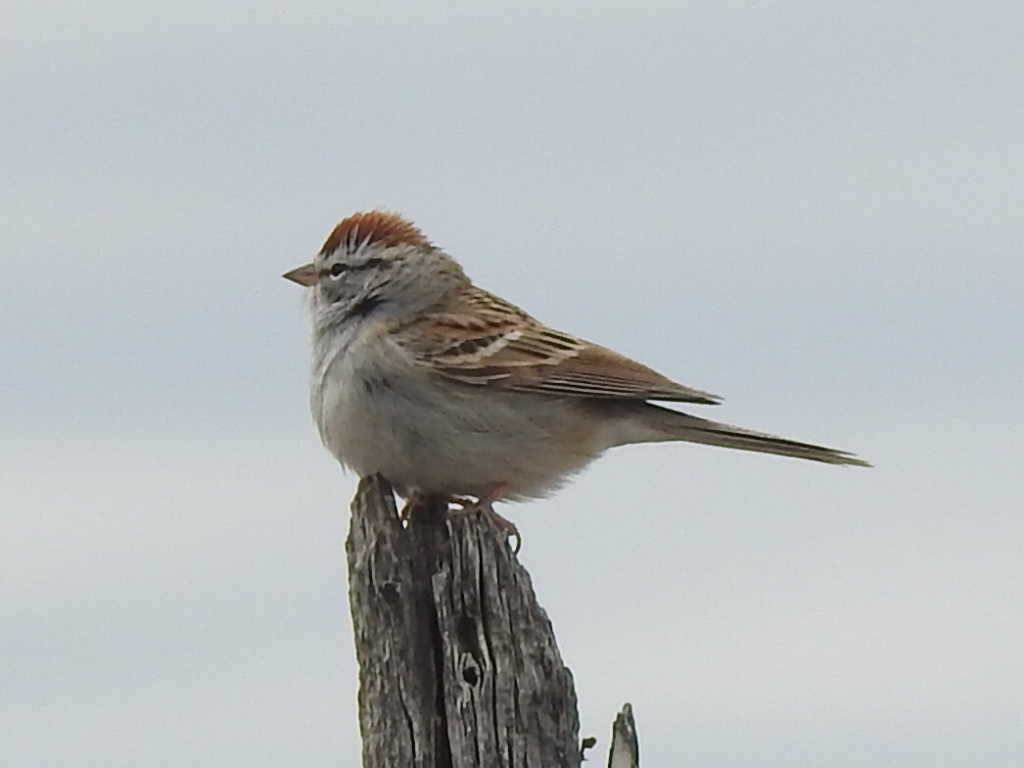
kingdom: Animalia
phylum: Chordata
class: Aves
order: Passeriformes
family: Passerellidae
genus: Spizella
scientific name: Spizella passerina
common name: Chipping sparrow
